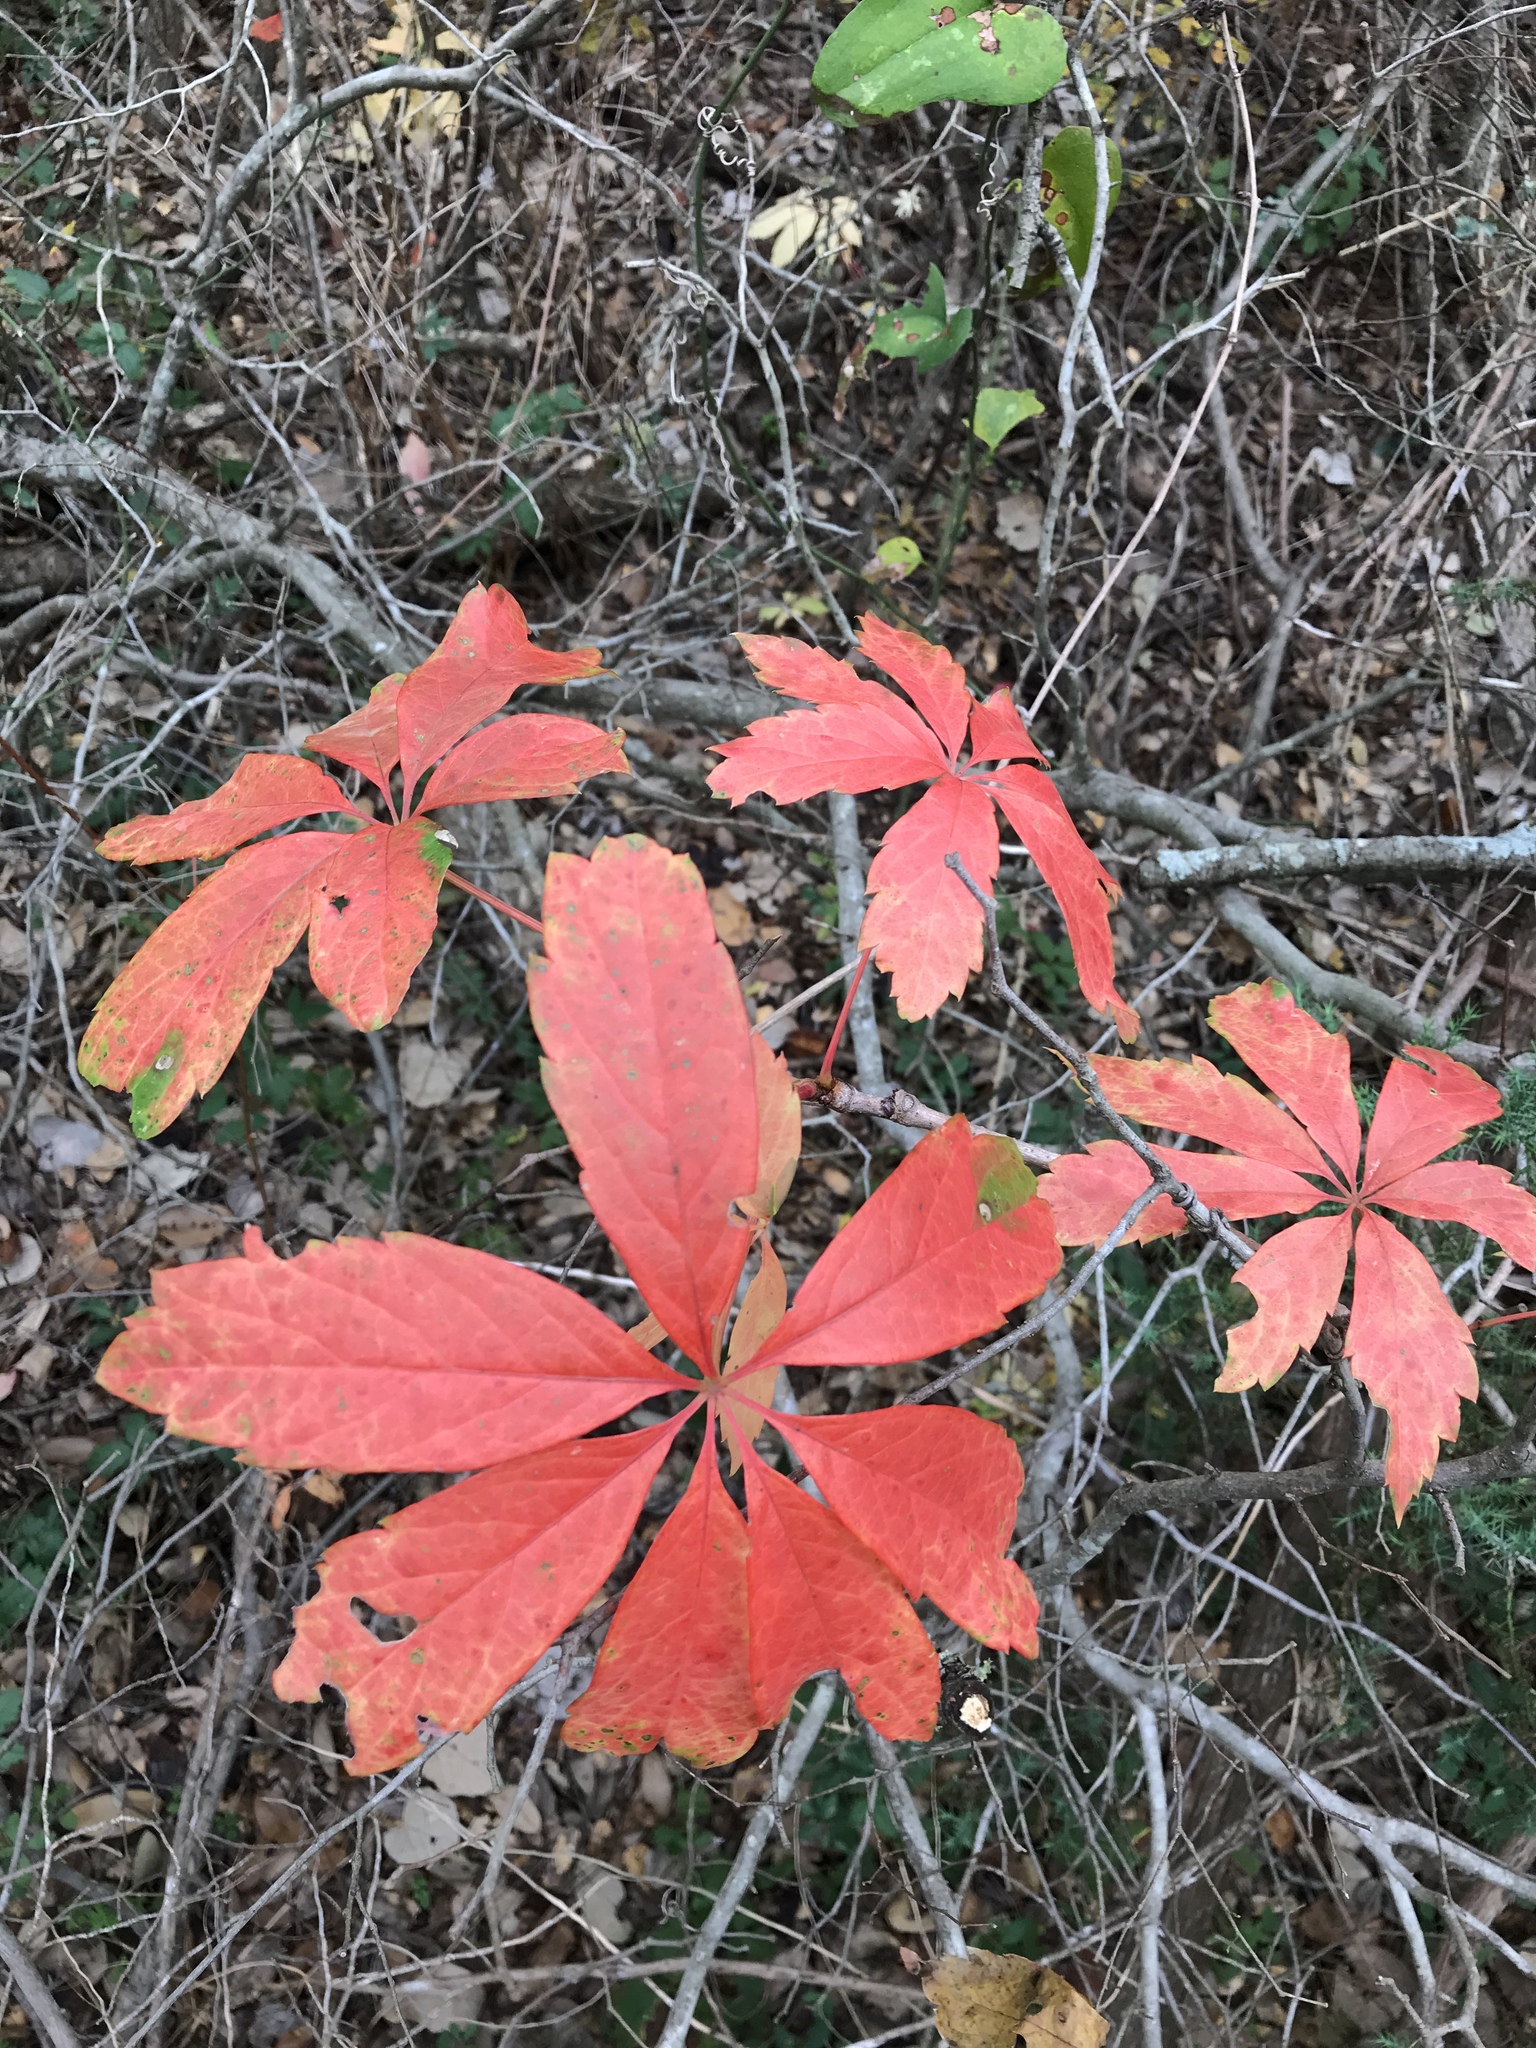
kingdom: Plantae
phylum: Tracheophyta
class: Magnoliopsida
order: Vitales
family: Vitaceae
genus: Parthenocissus
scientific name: Parthenocissus heptaphylla
